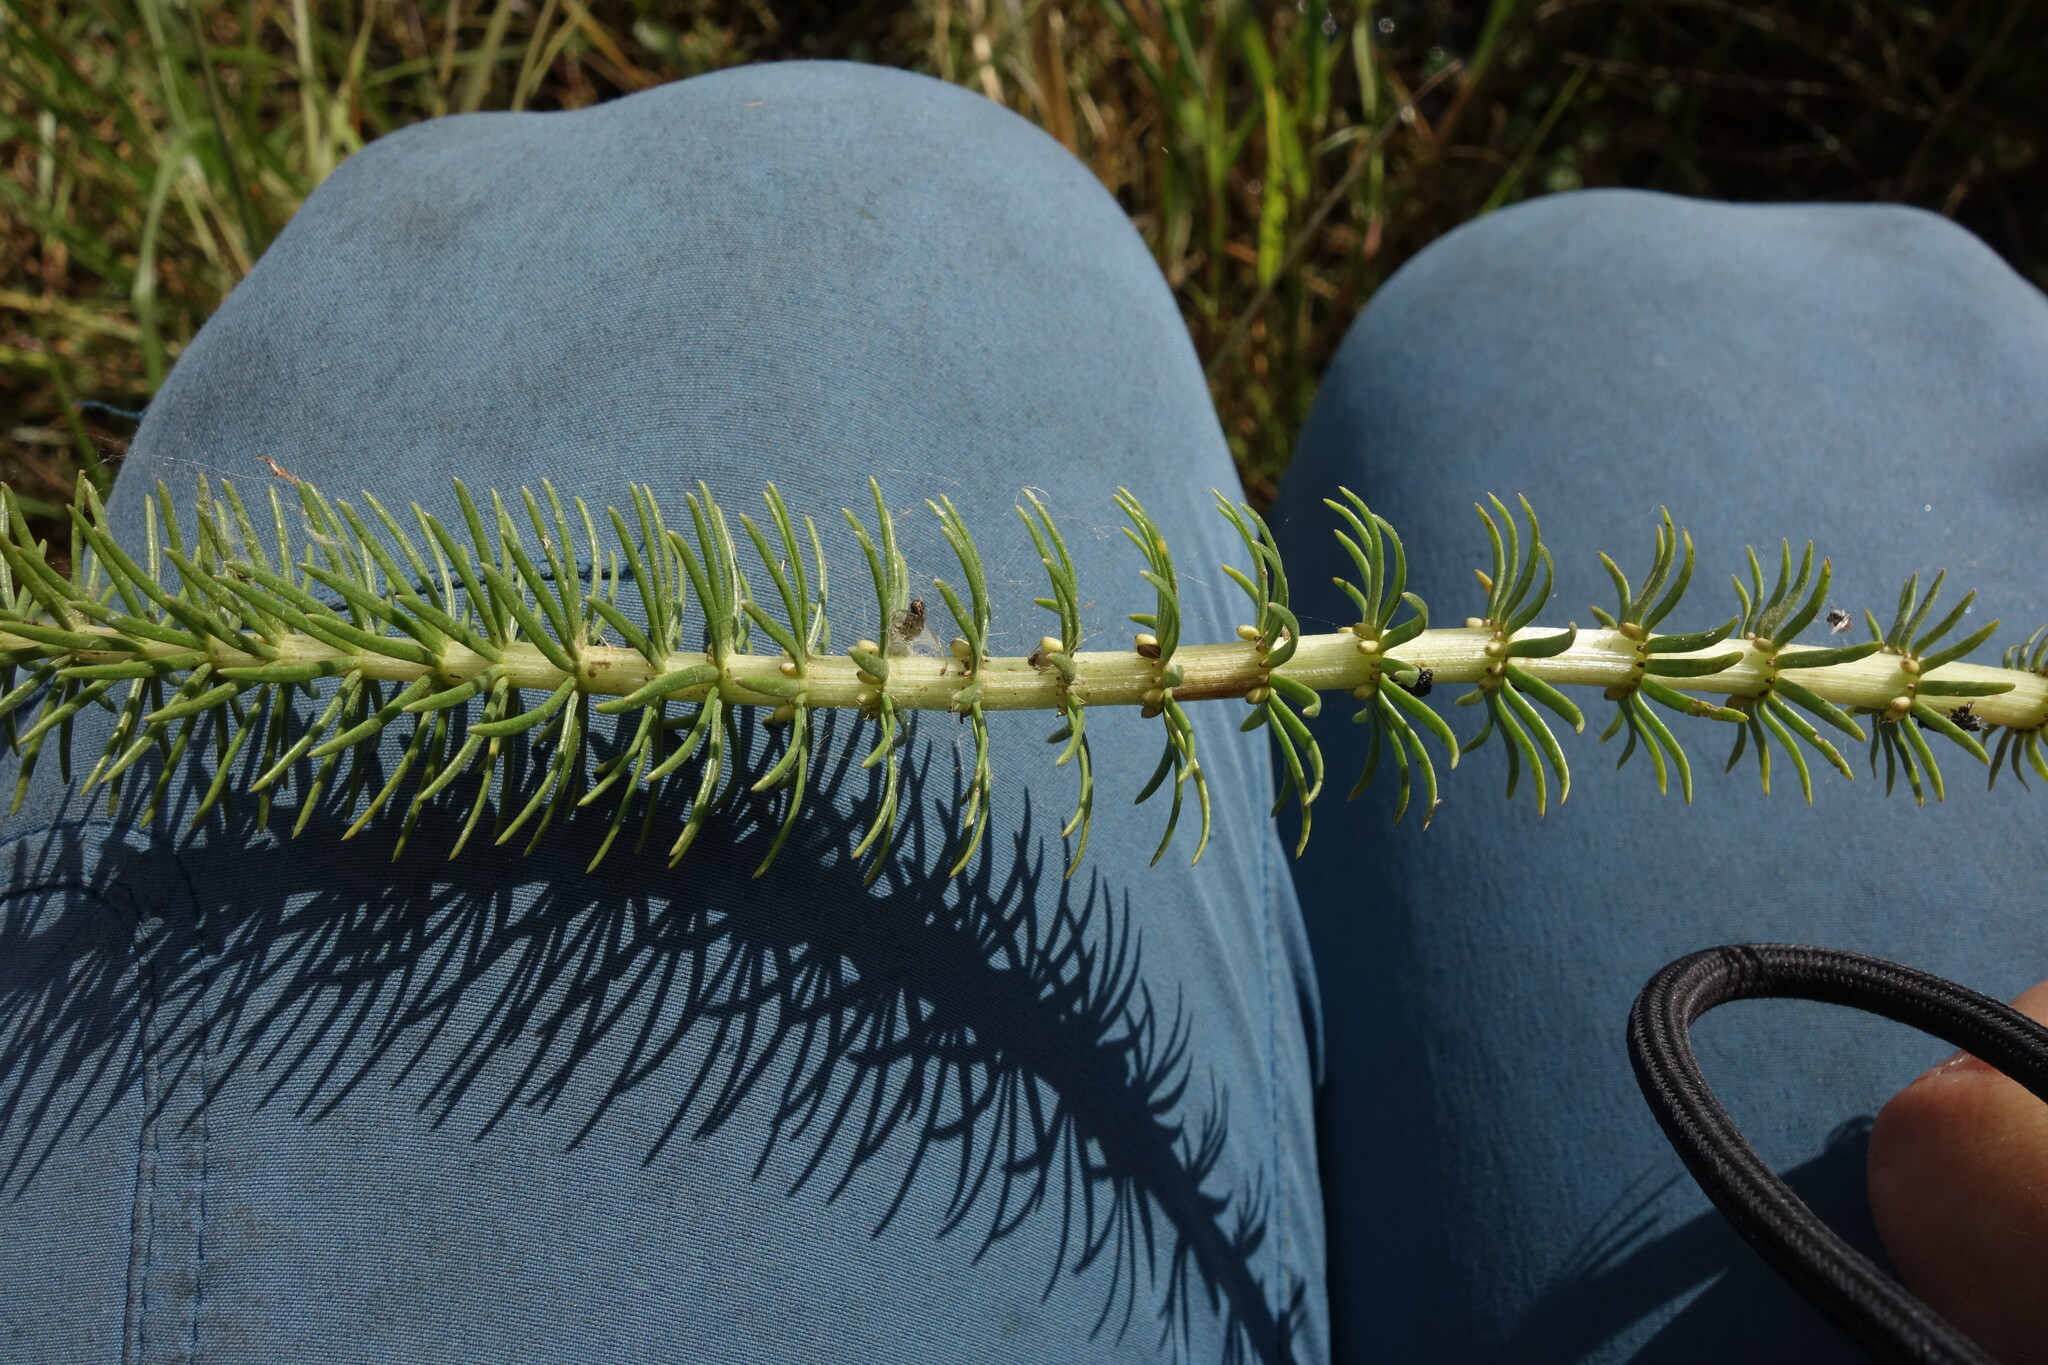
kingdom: Plantae
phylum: Tracheophyta
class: Magnoliopsida
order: Lamiales
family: Plantaginaceae
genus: Hippuris
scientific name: Hippuris vulgaris
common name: Mare's-tail
